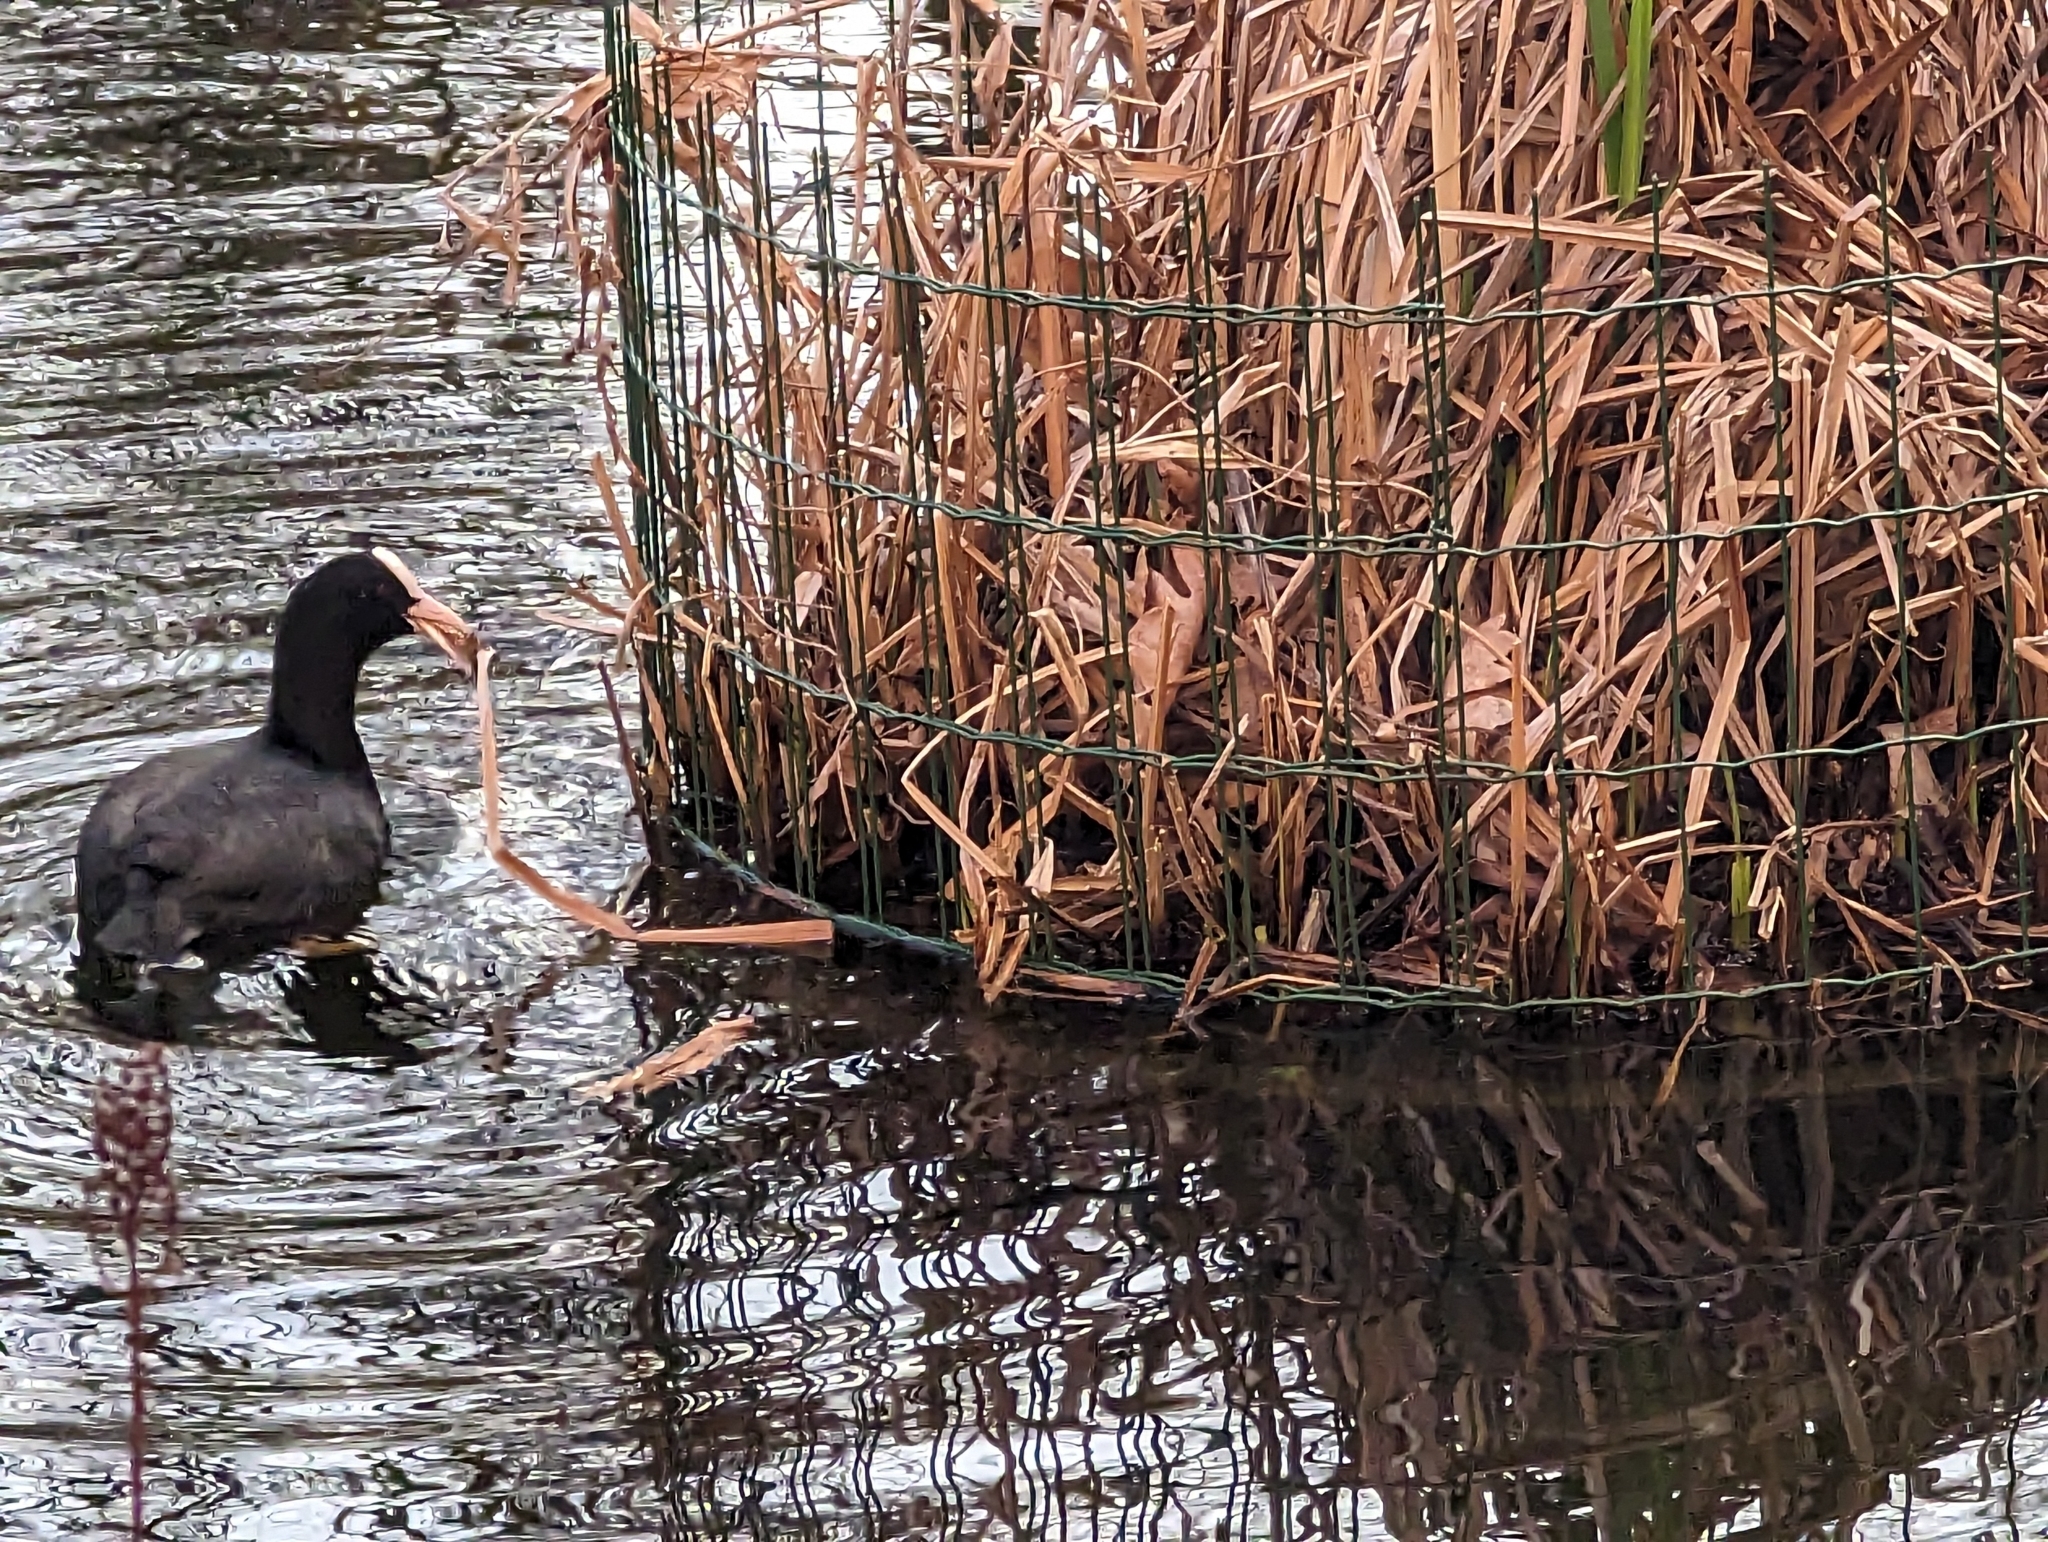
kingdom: Animalia
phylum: Chordata
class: Aves
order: Gruiformes
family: Rallidae
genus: Fulica
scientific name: Fulica atra
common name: Eurasian coot
